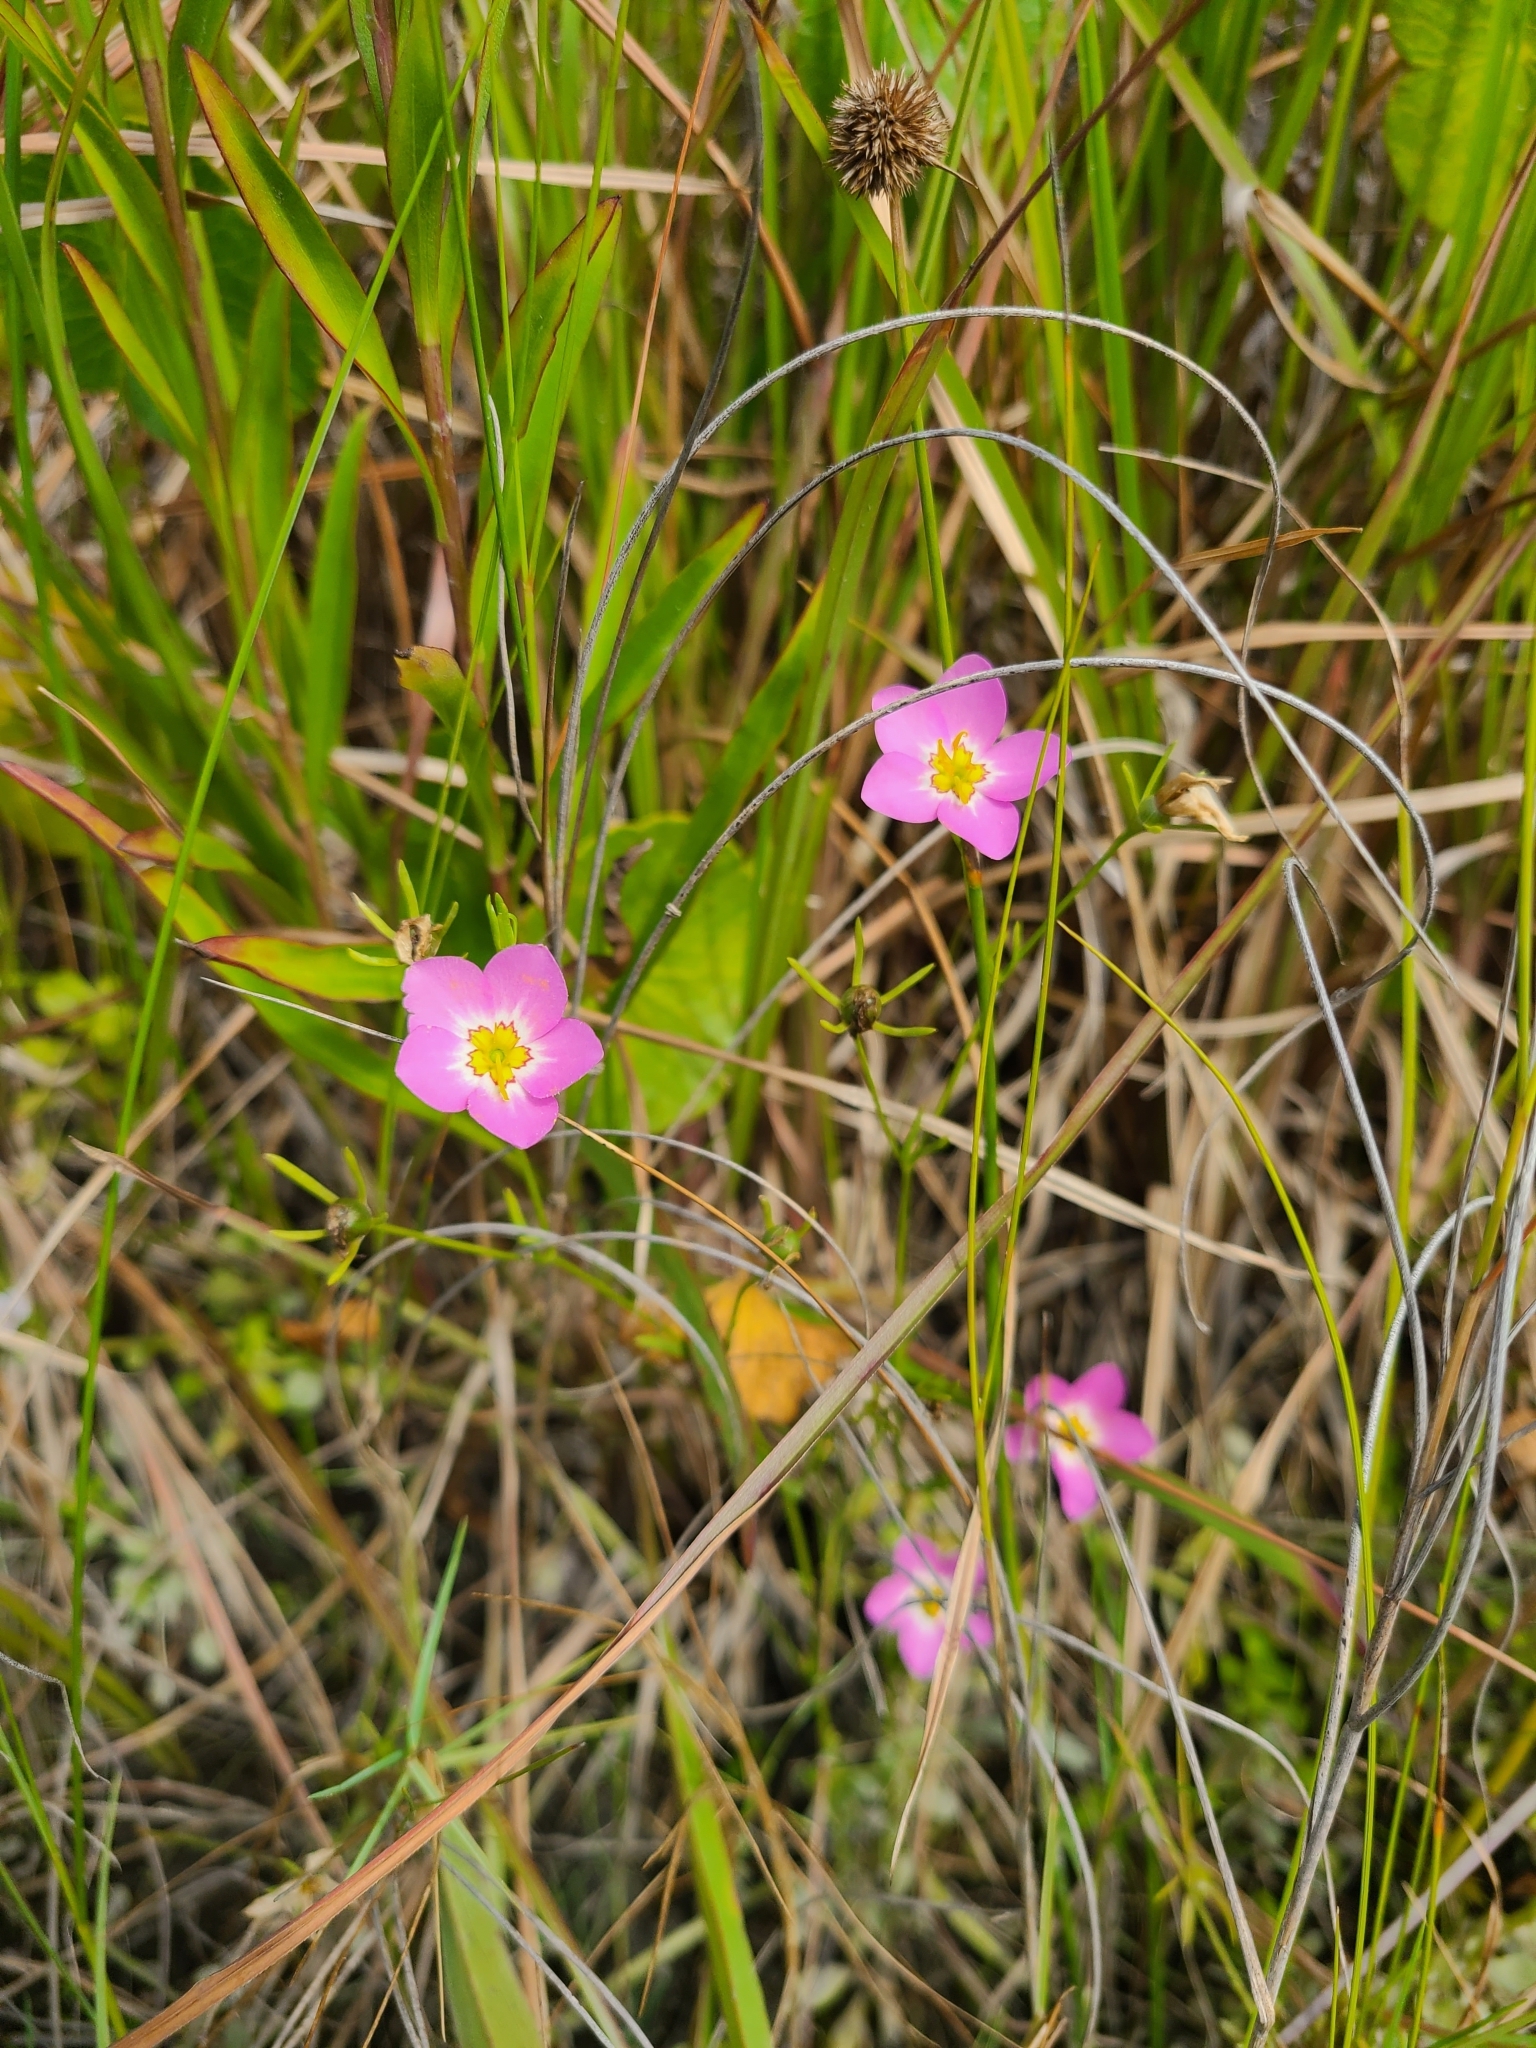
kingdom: Plantae
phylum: Tracheophyta
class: Magnoliopsida
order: Gentianales
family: Gentianaceae
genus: Sabatia
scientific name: Sabatia stellaris
